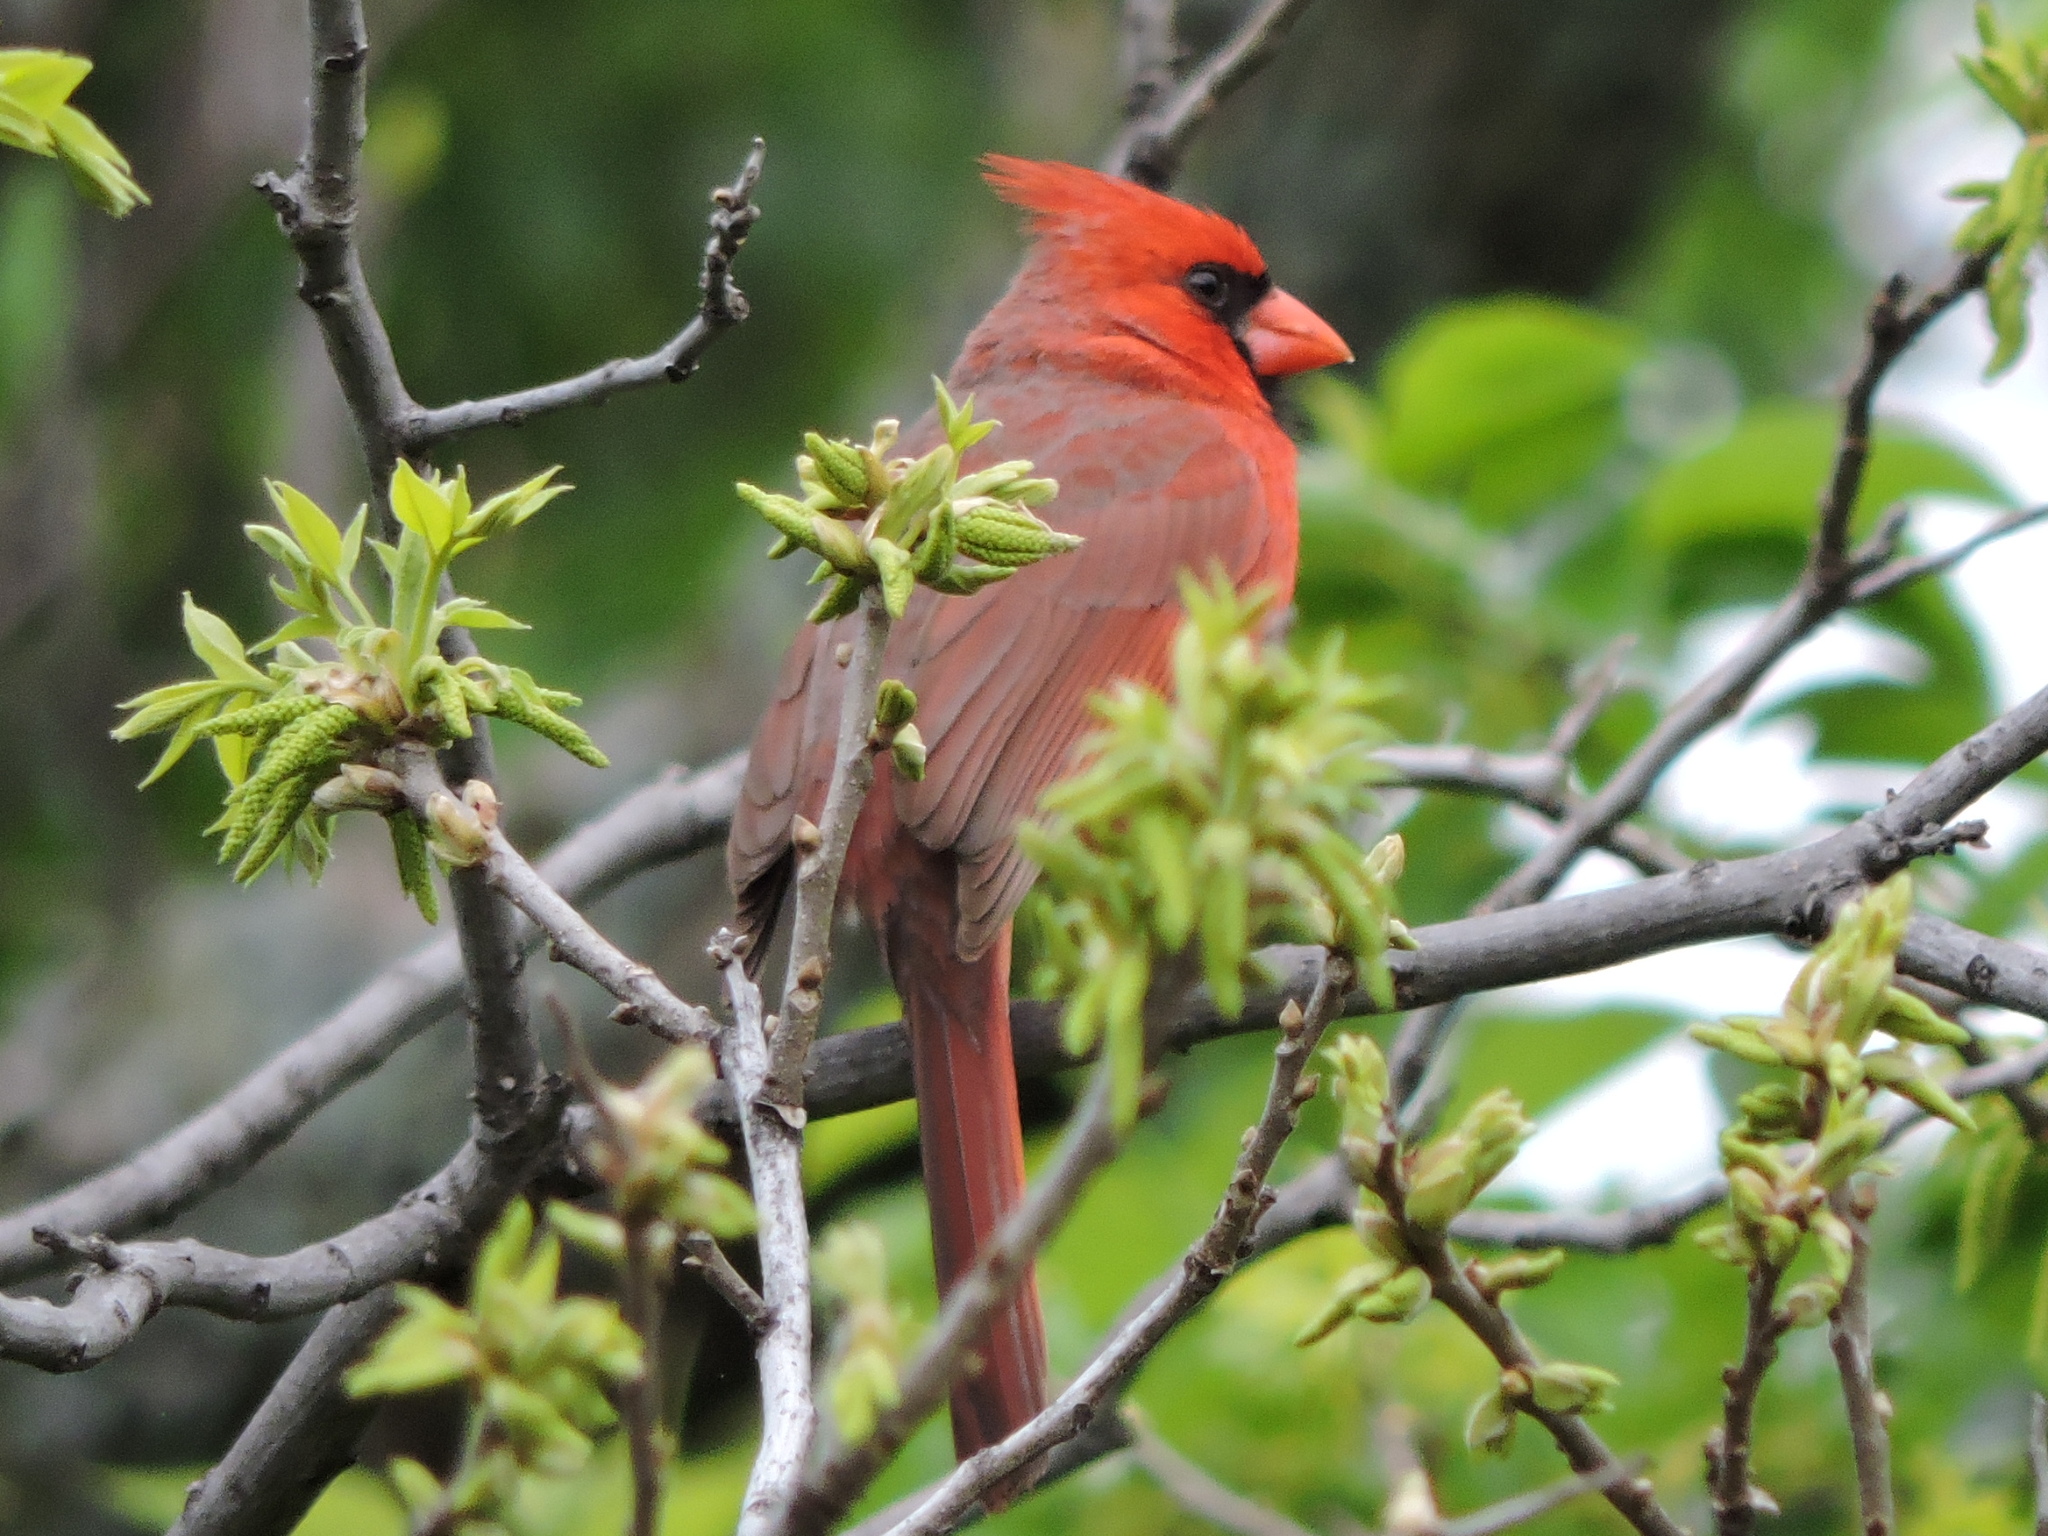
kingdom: Animalia
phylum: Chordata
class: Aves
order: Passeriformes
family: Cardinalidae
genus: Cardinalis
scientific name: Cardinalis cardinalis
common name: Northern cardinal
